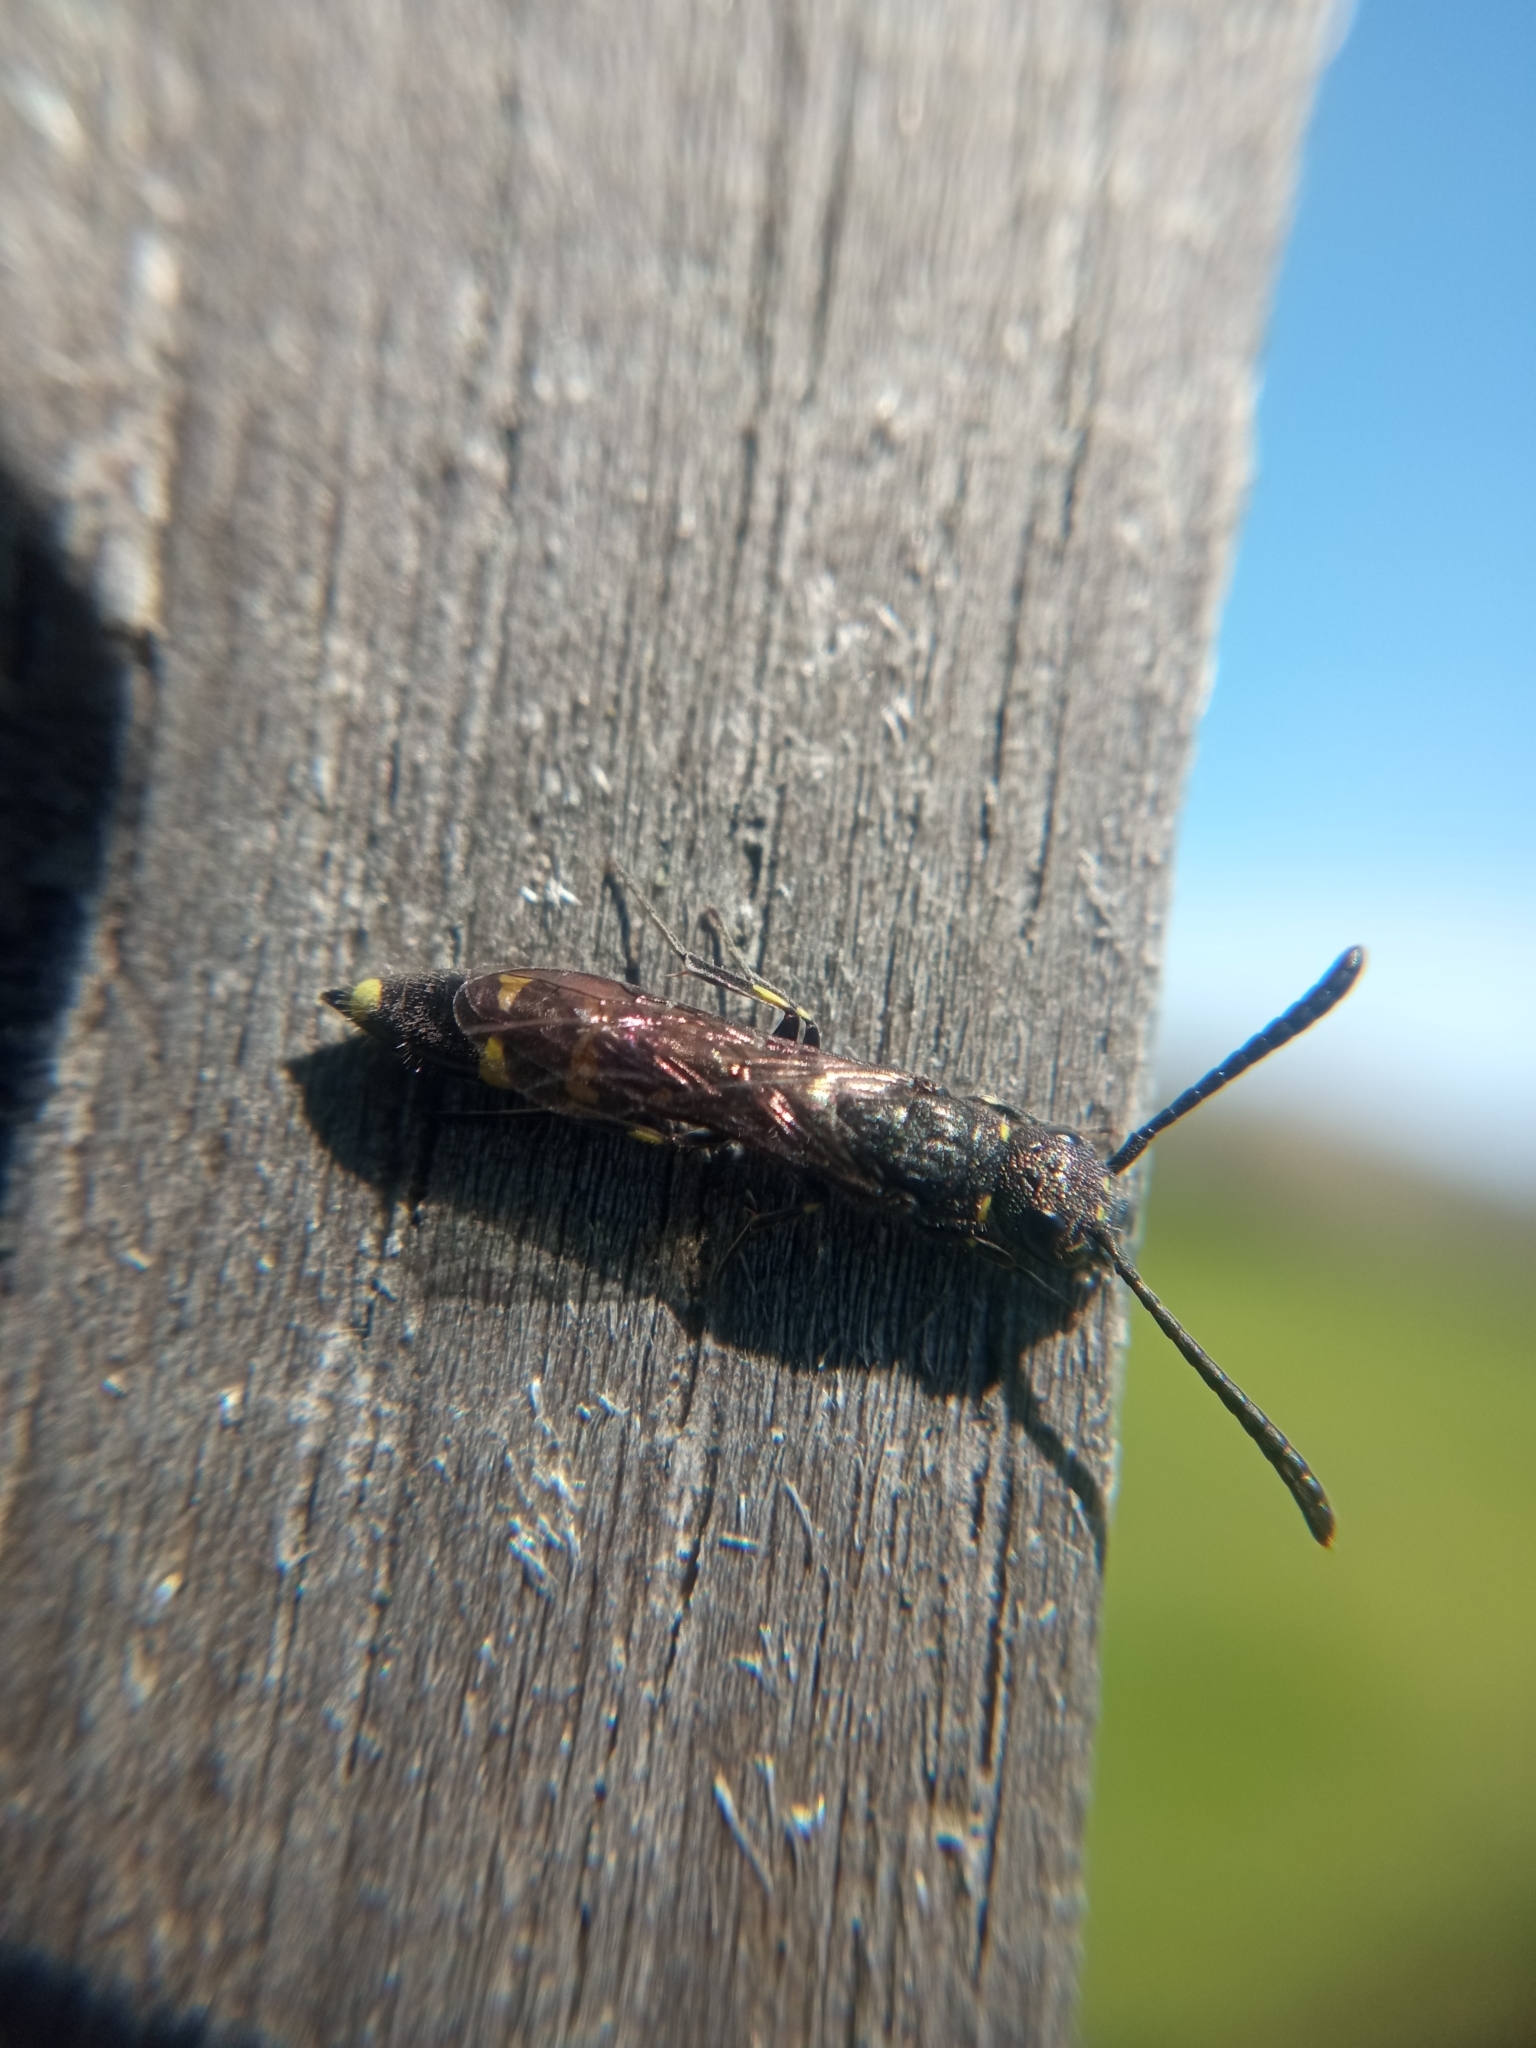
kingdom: Animalia
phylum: Arthropoda
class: Insecta
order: Hymenoptera
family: Sapygidae
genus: Monosapyga
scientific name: Monosapyga clavicornis
